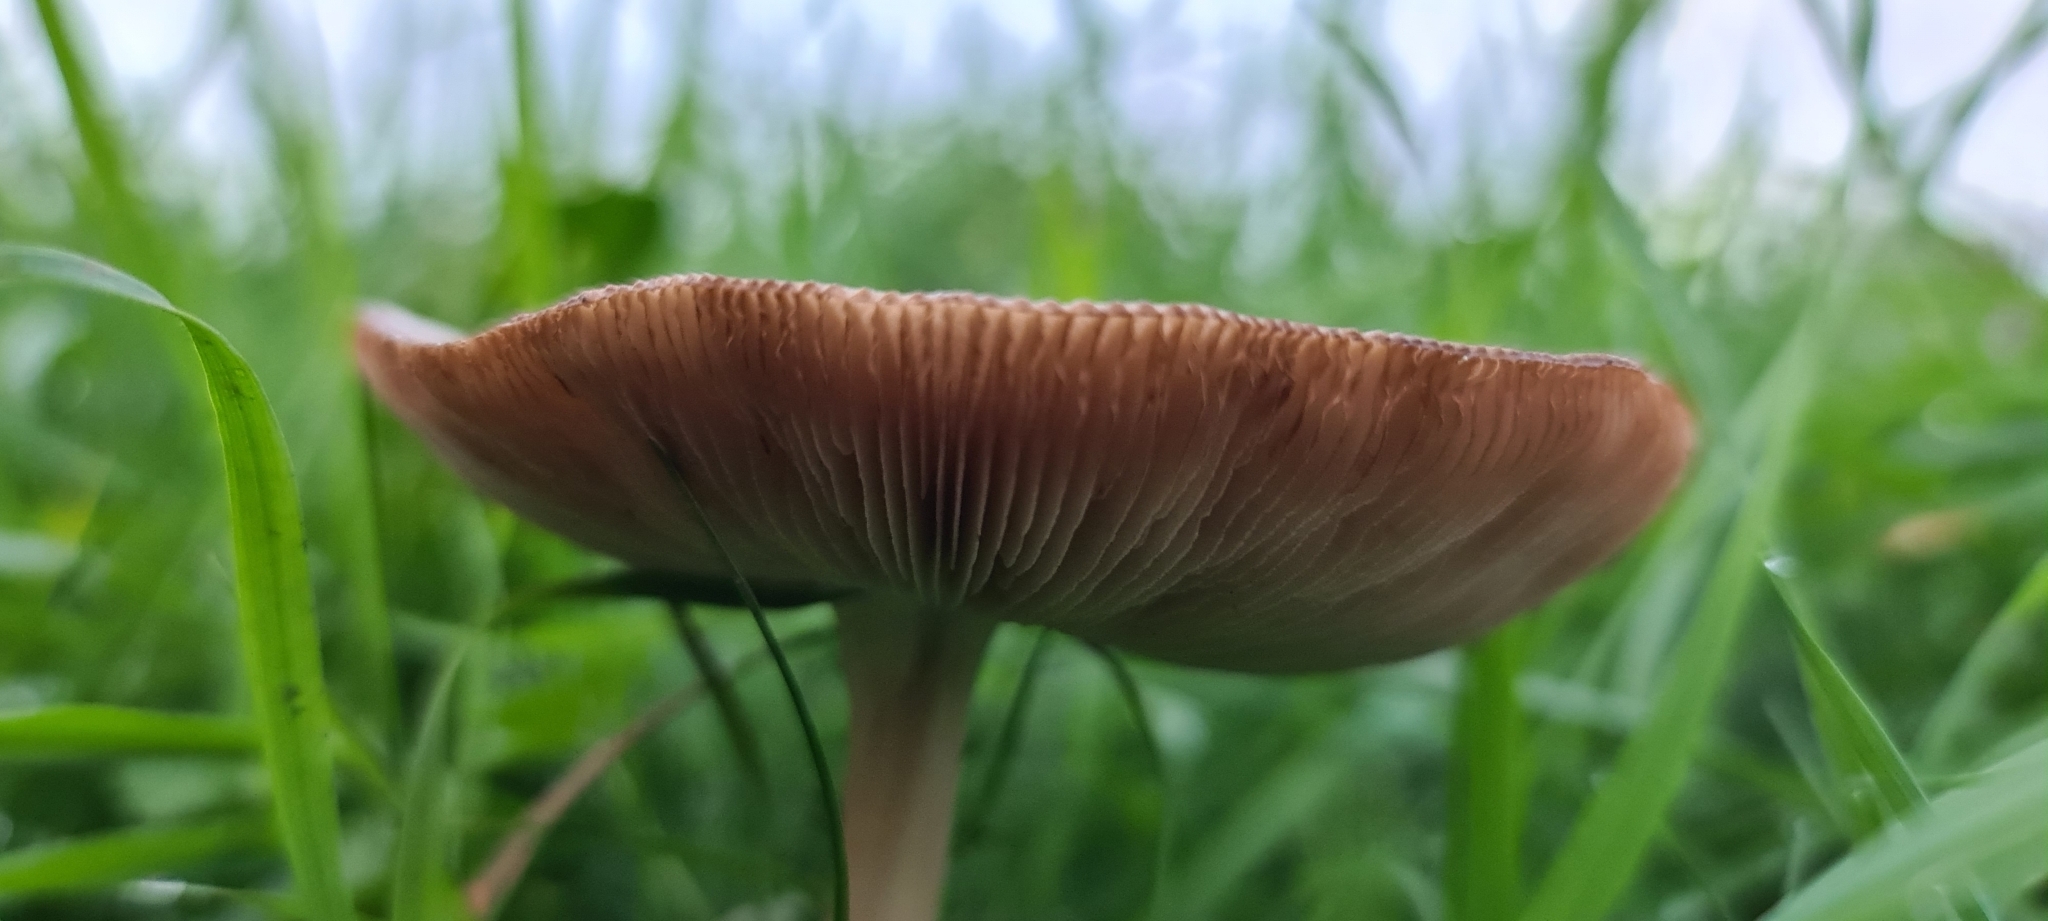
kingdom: Fungi
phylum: Basidiomycota
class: Agaricomycetes
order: Agaricales
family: Pluteaceae
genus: Volvopluteus
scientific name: Volvopluteus gloiocephalus
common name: Stubble rosegill
